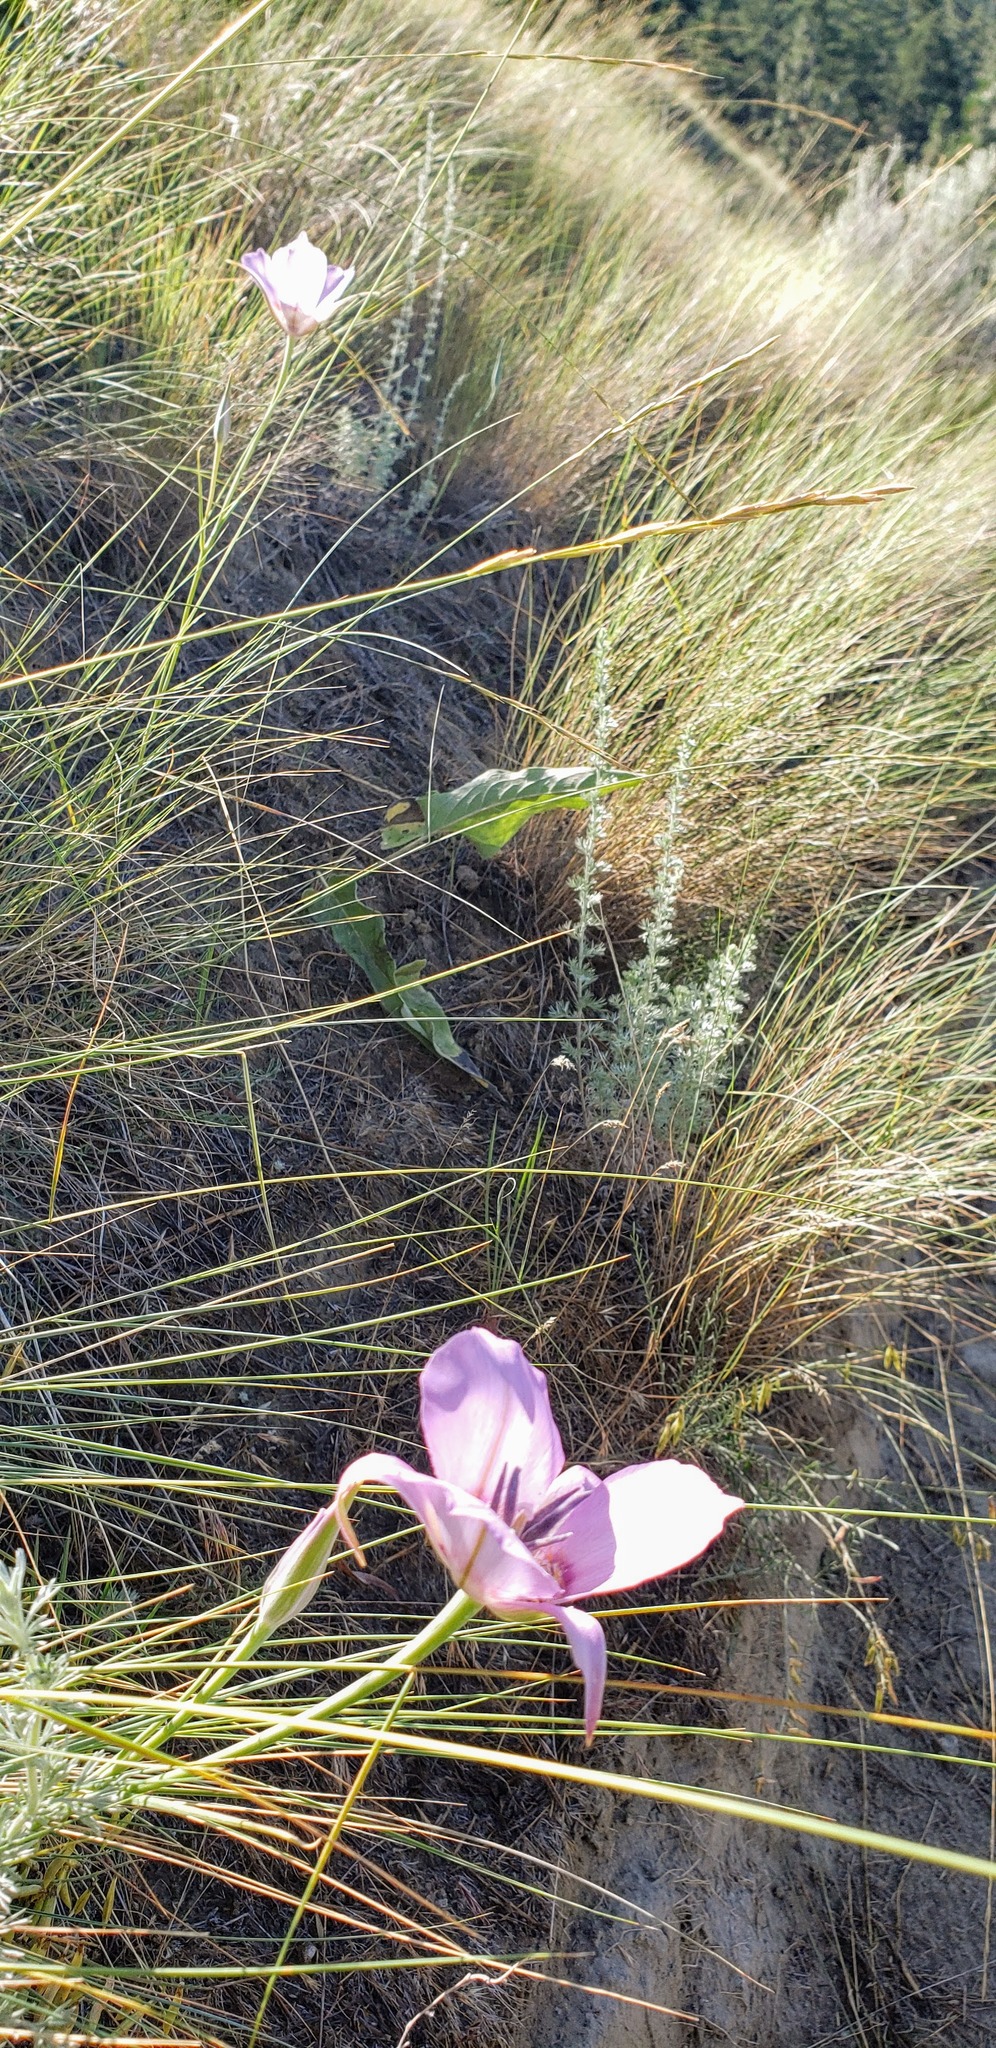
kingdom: Plantae
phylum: Tracheophyta
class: Liliopsida
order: Liliales
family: Liliaceae
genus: Calochortus
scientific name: Calochortus macrocarpus
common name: Green-band mariposa lily
